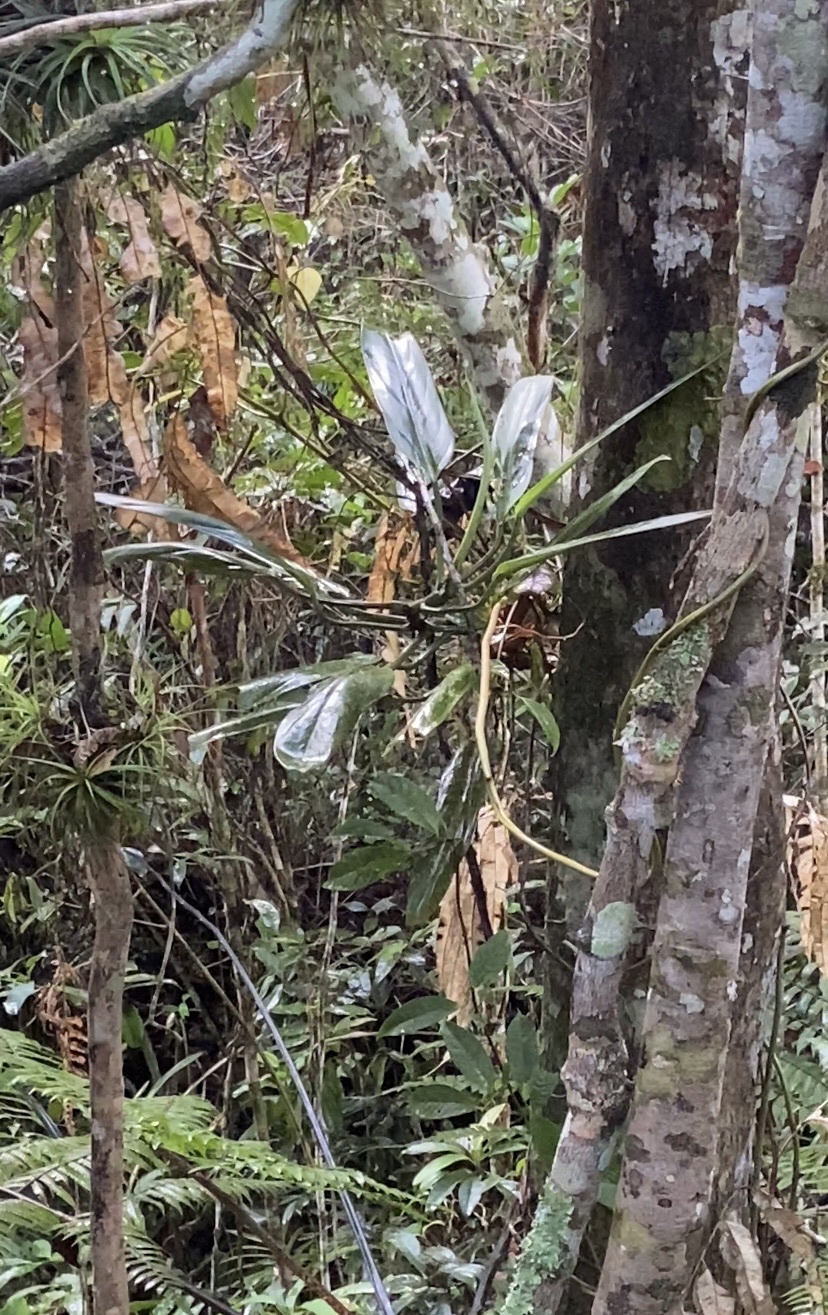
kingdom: Plantae
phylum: Tracheophyta
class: Liliopsida
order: Alismatales
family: Araceae
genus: Philodendron
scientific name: Philodendron hatschbachii
